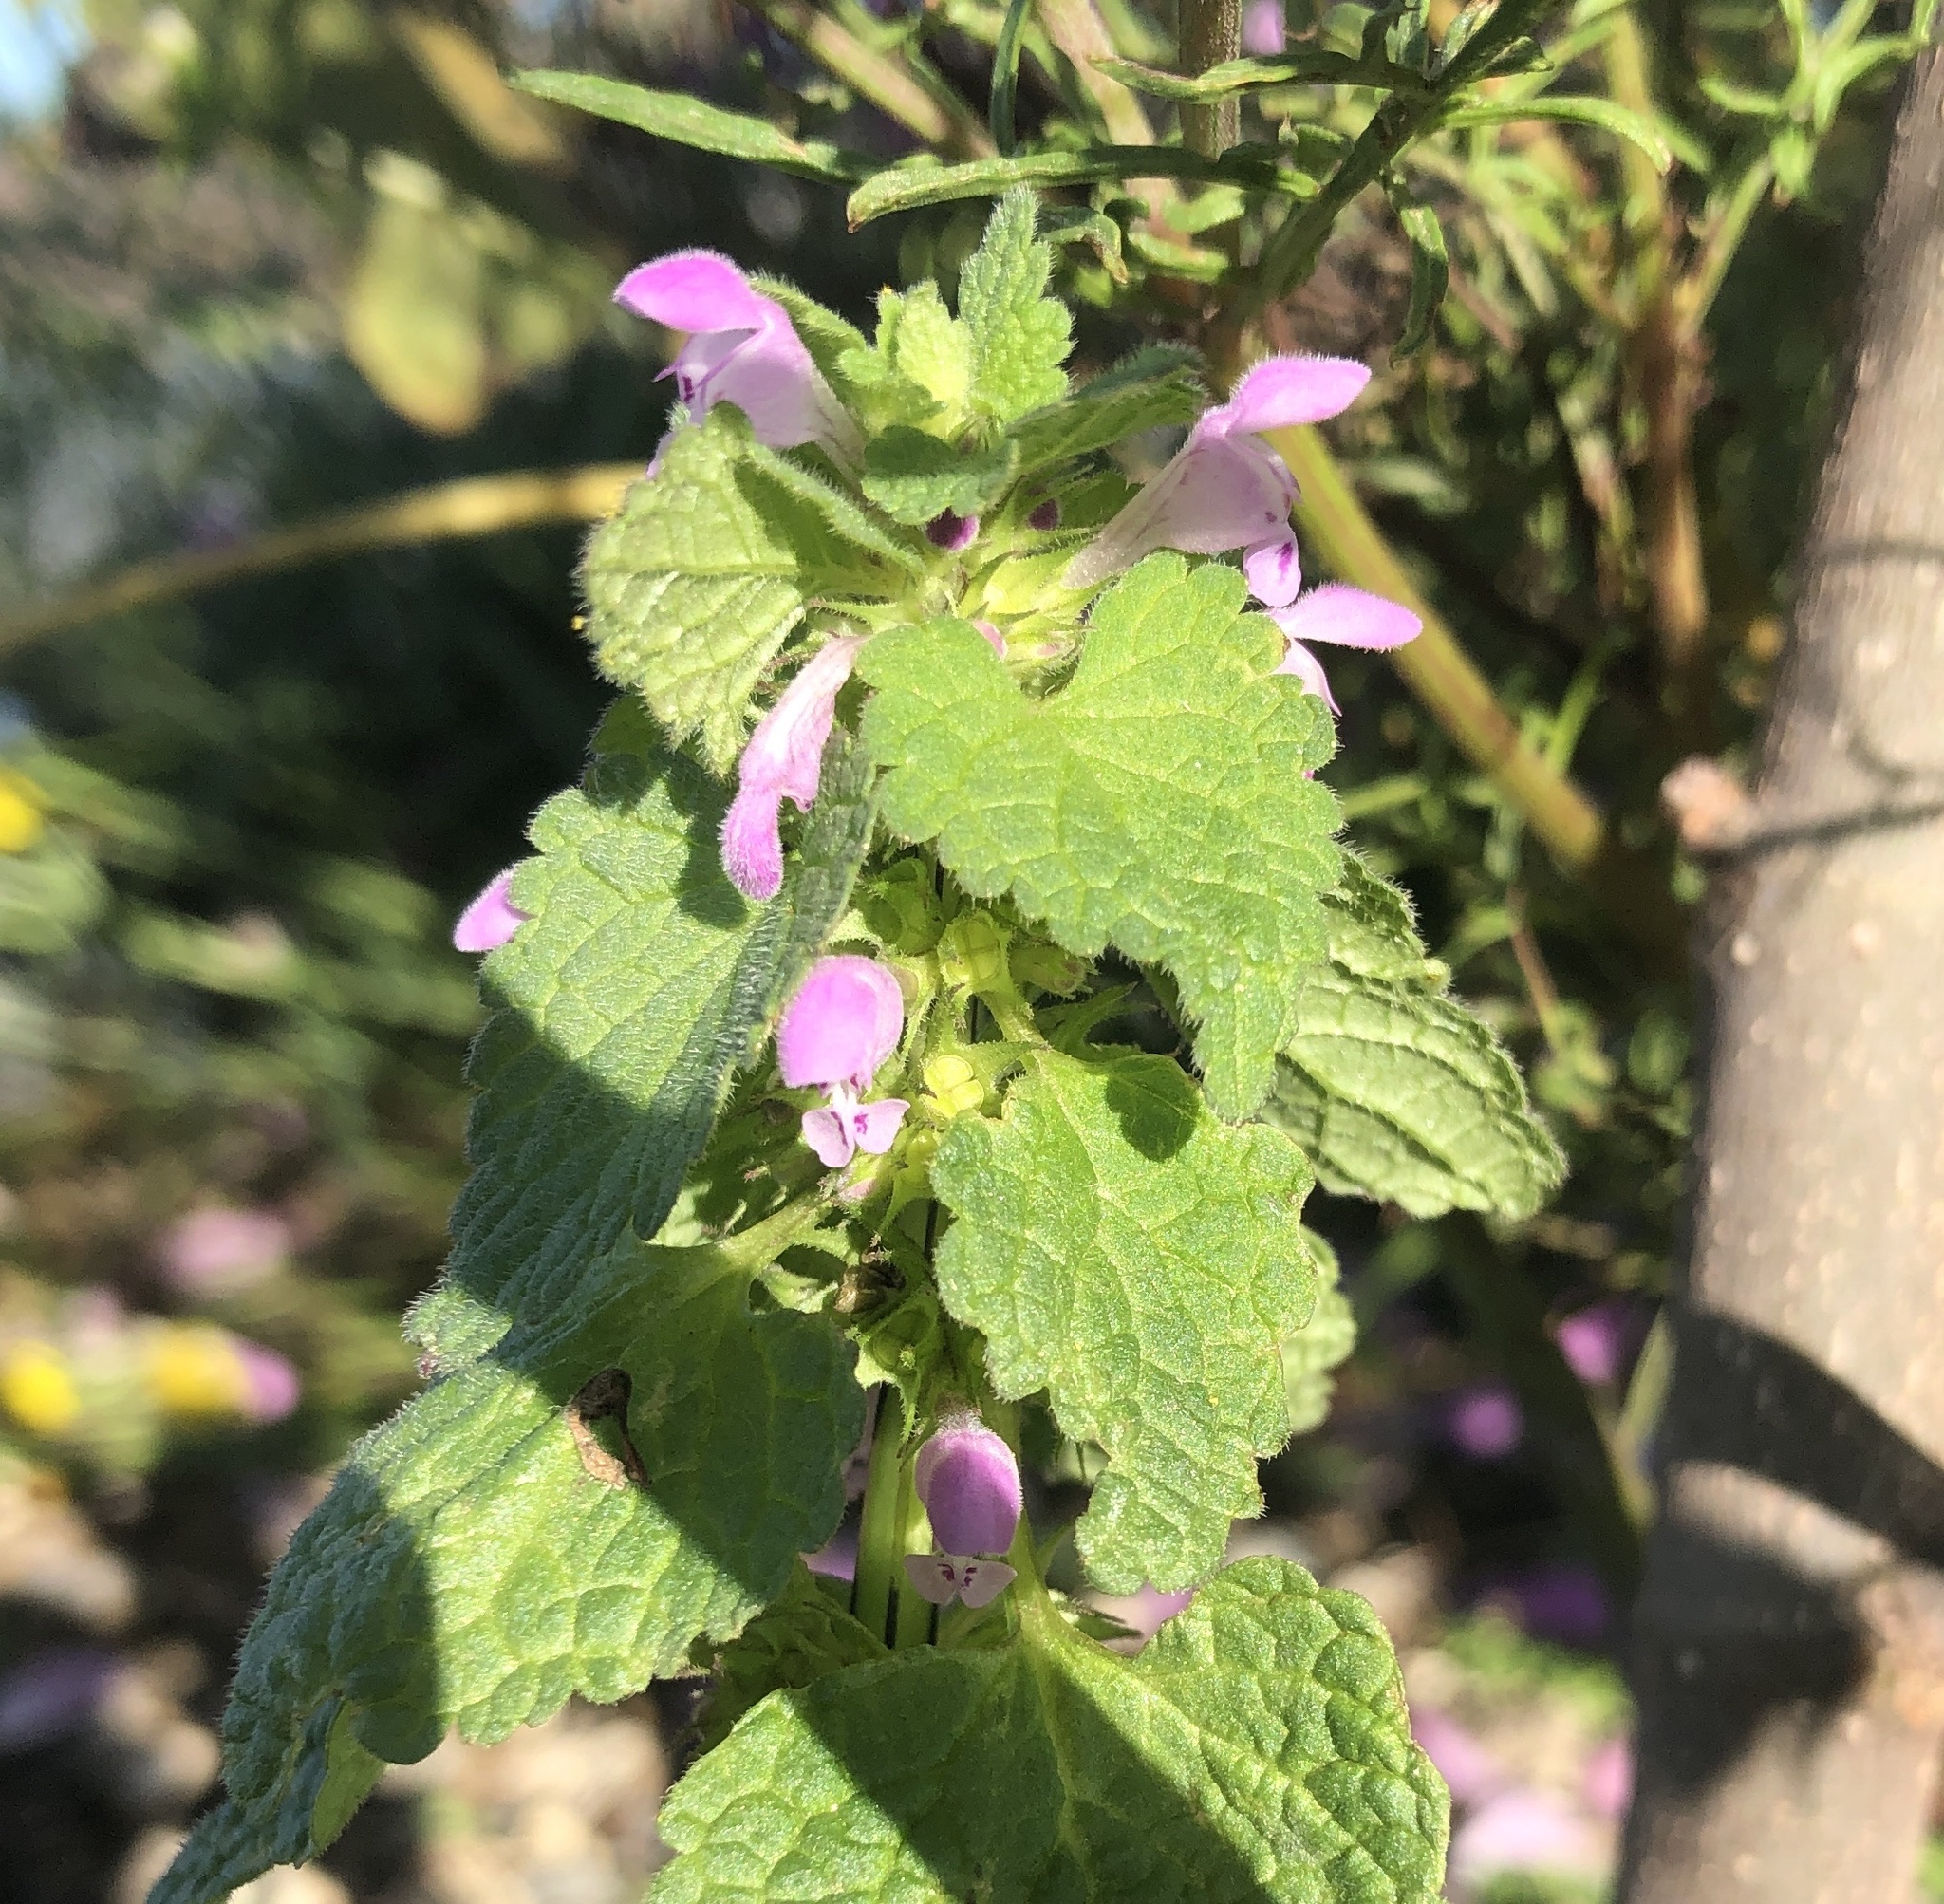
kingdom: Plantae
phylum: Tracheophyta
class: Magnoliopsida
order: Lamiales
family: Lamiaceae
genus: Lamium
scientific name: Lamium purpureum
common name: Red dead-nettle
